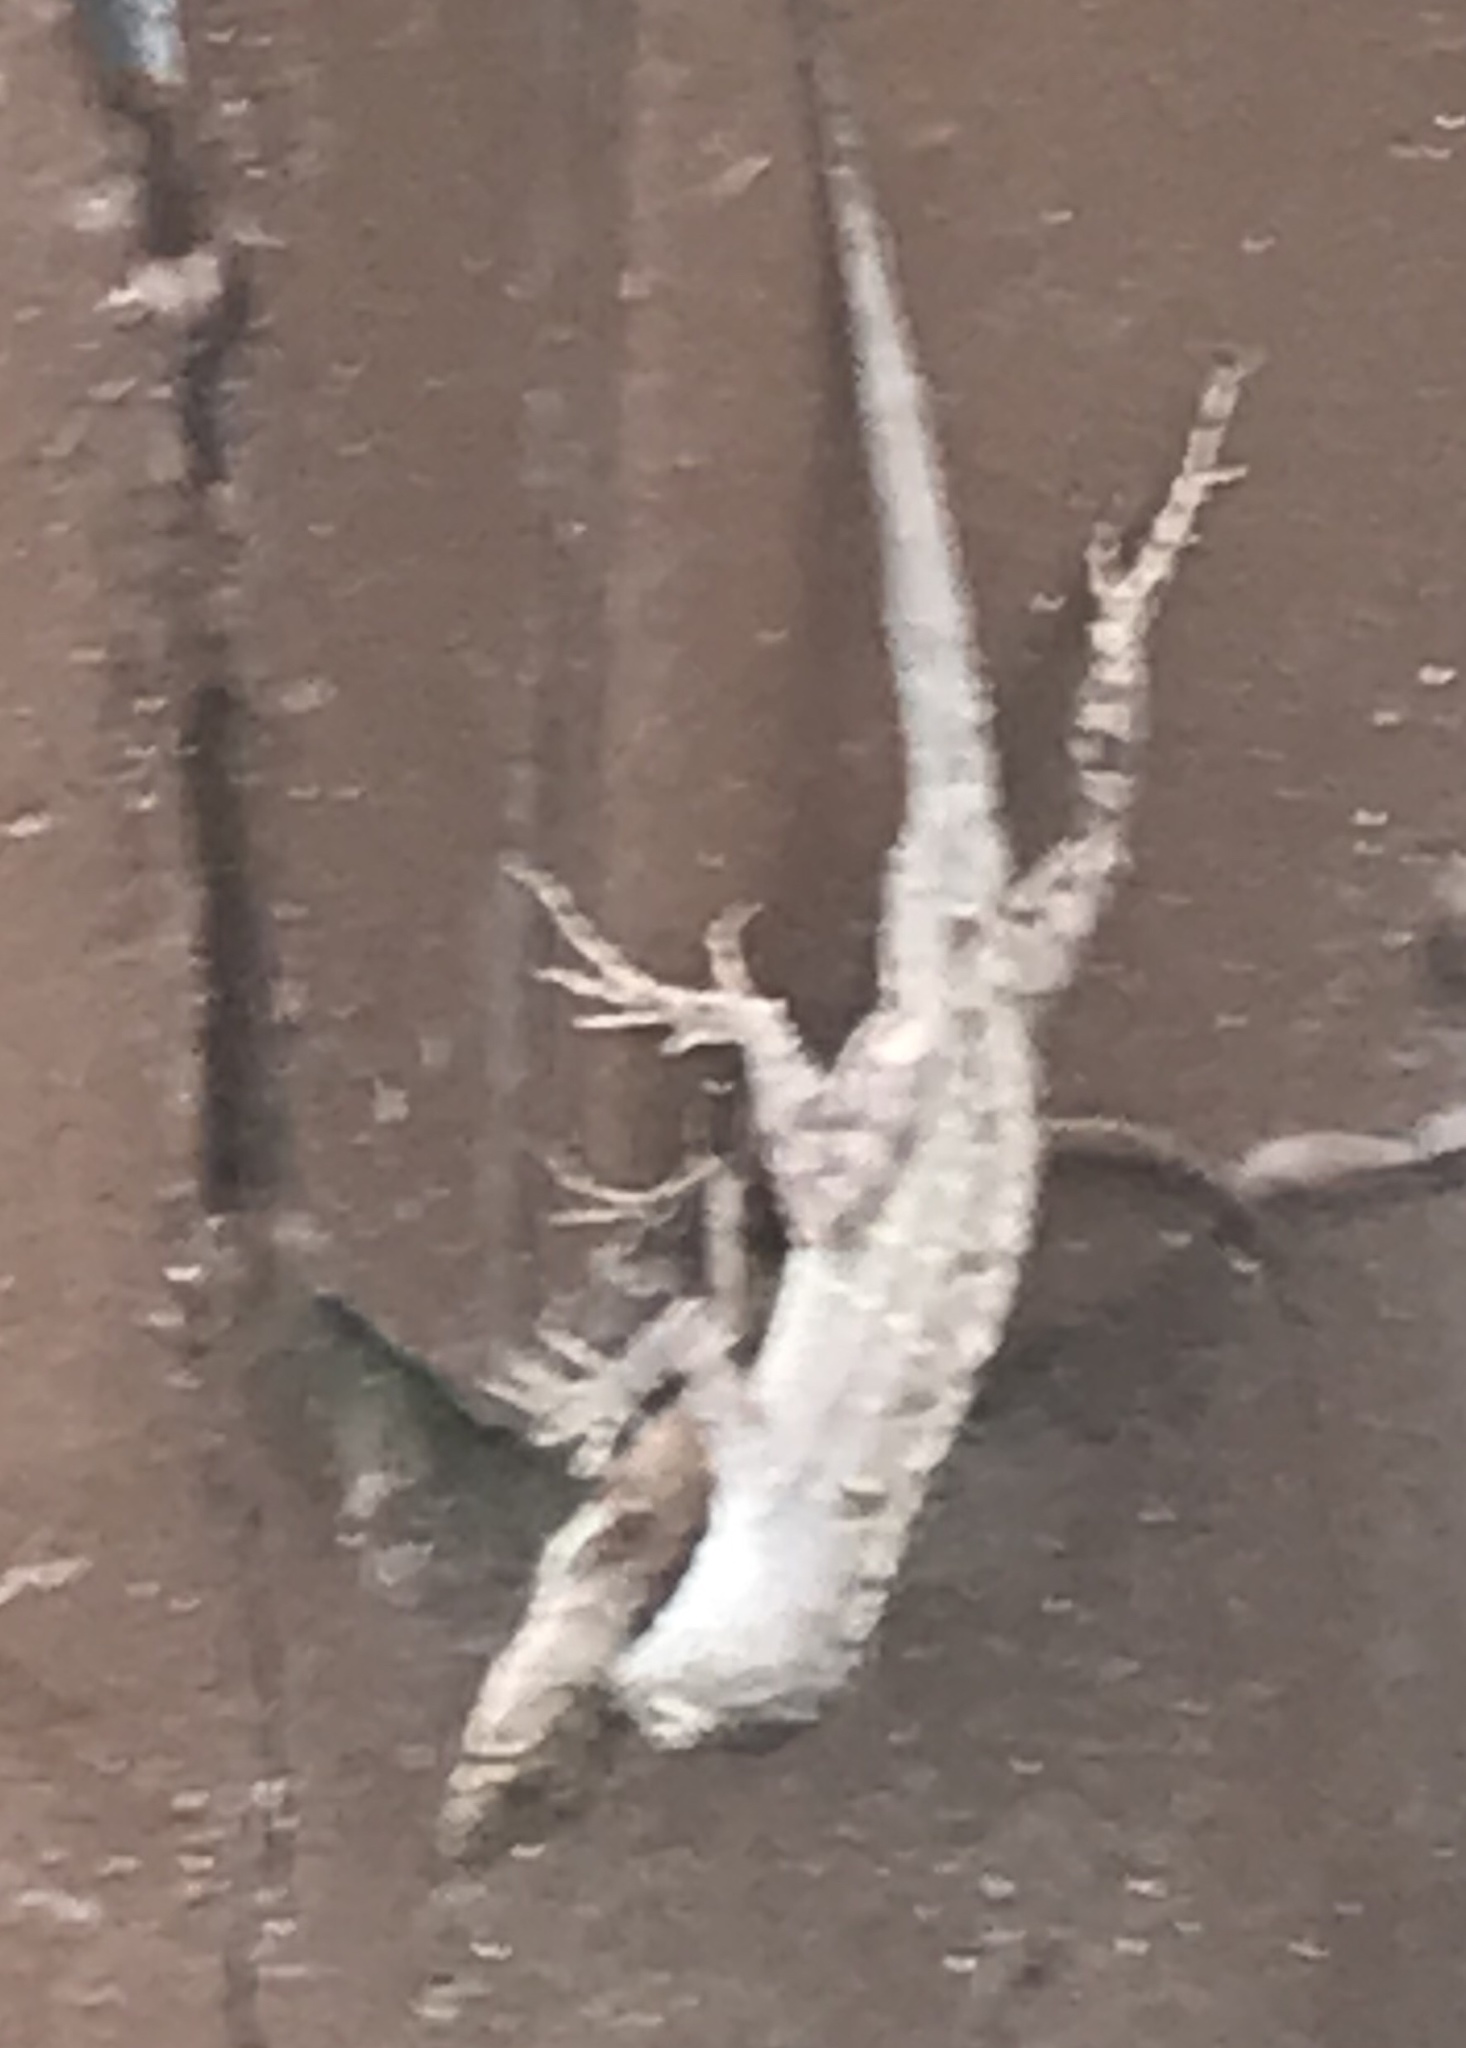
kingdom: Animalia
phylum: Chordata
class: Squamata
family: Dactyloidae
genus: Anolis
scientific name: Anolis sagrei
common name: Brown anole
